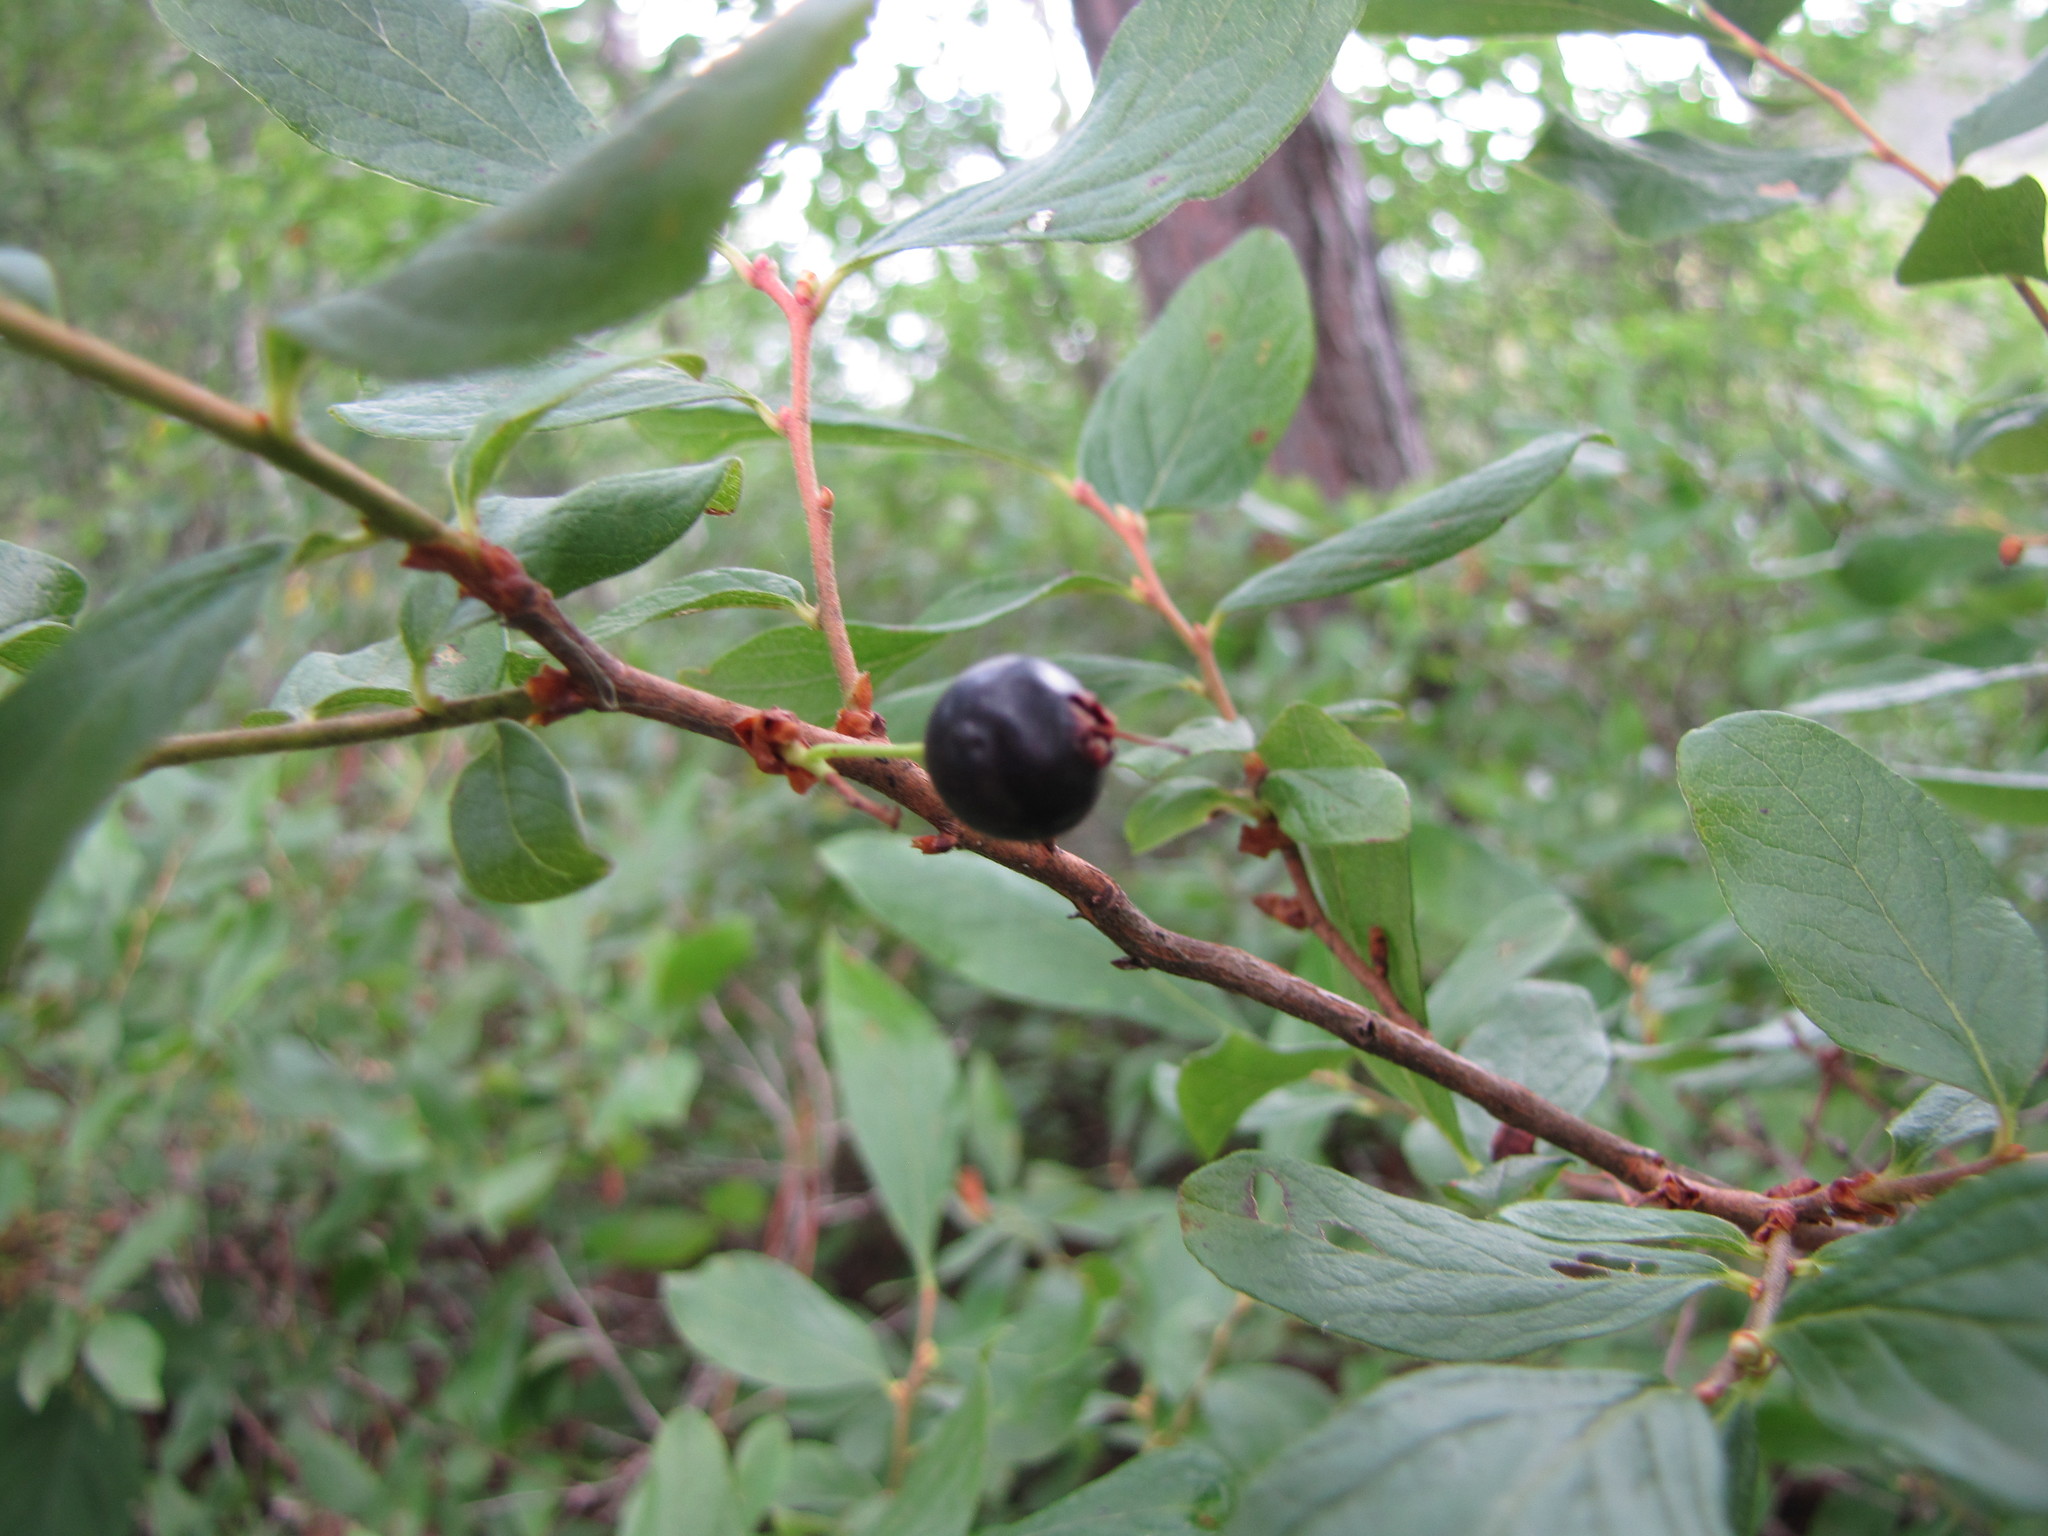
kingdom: Plantae
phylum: Tracheophyta
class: Magnoliopsida
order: Ericales
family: Ericaceae
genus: Gaylussacia
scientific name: Gaylussacia baccata
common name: Black huckleberry
